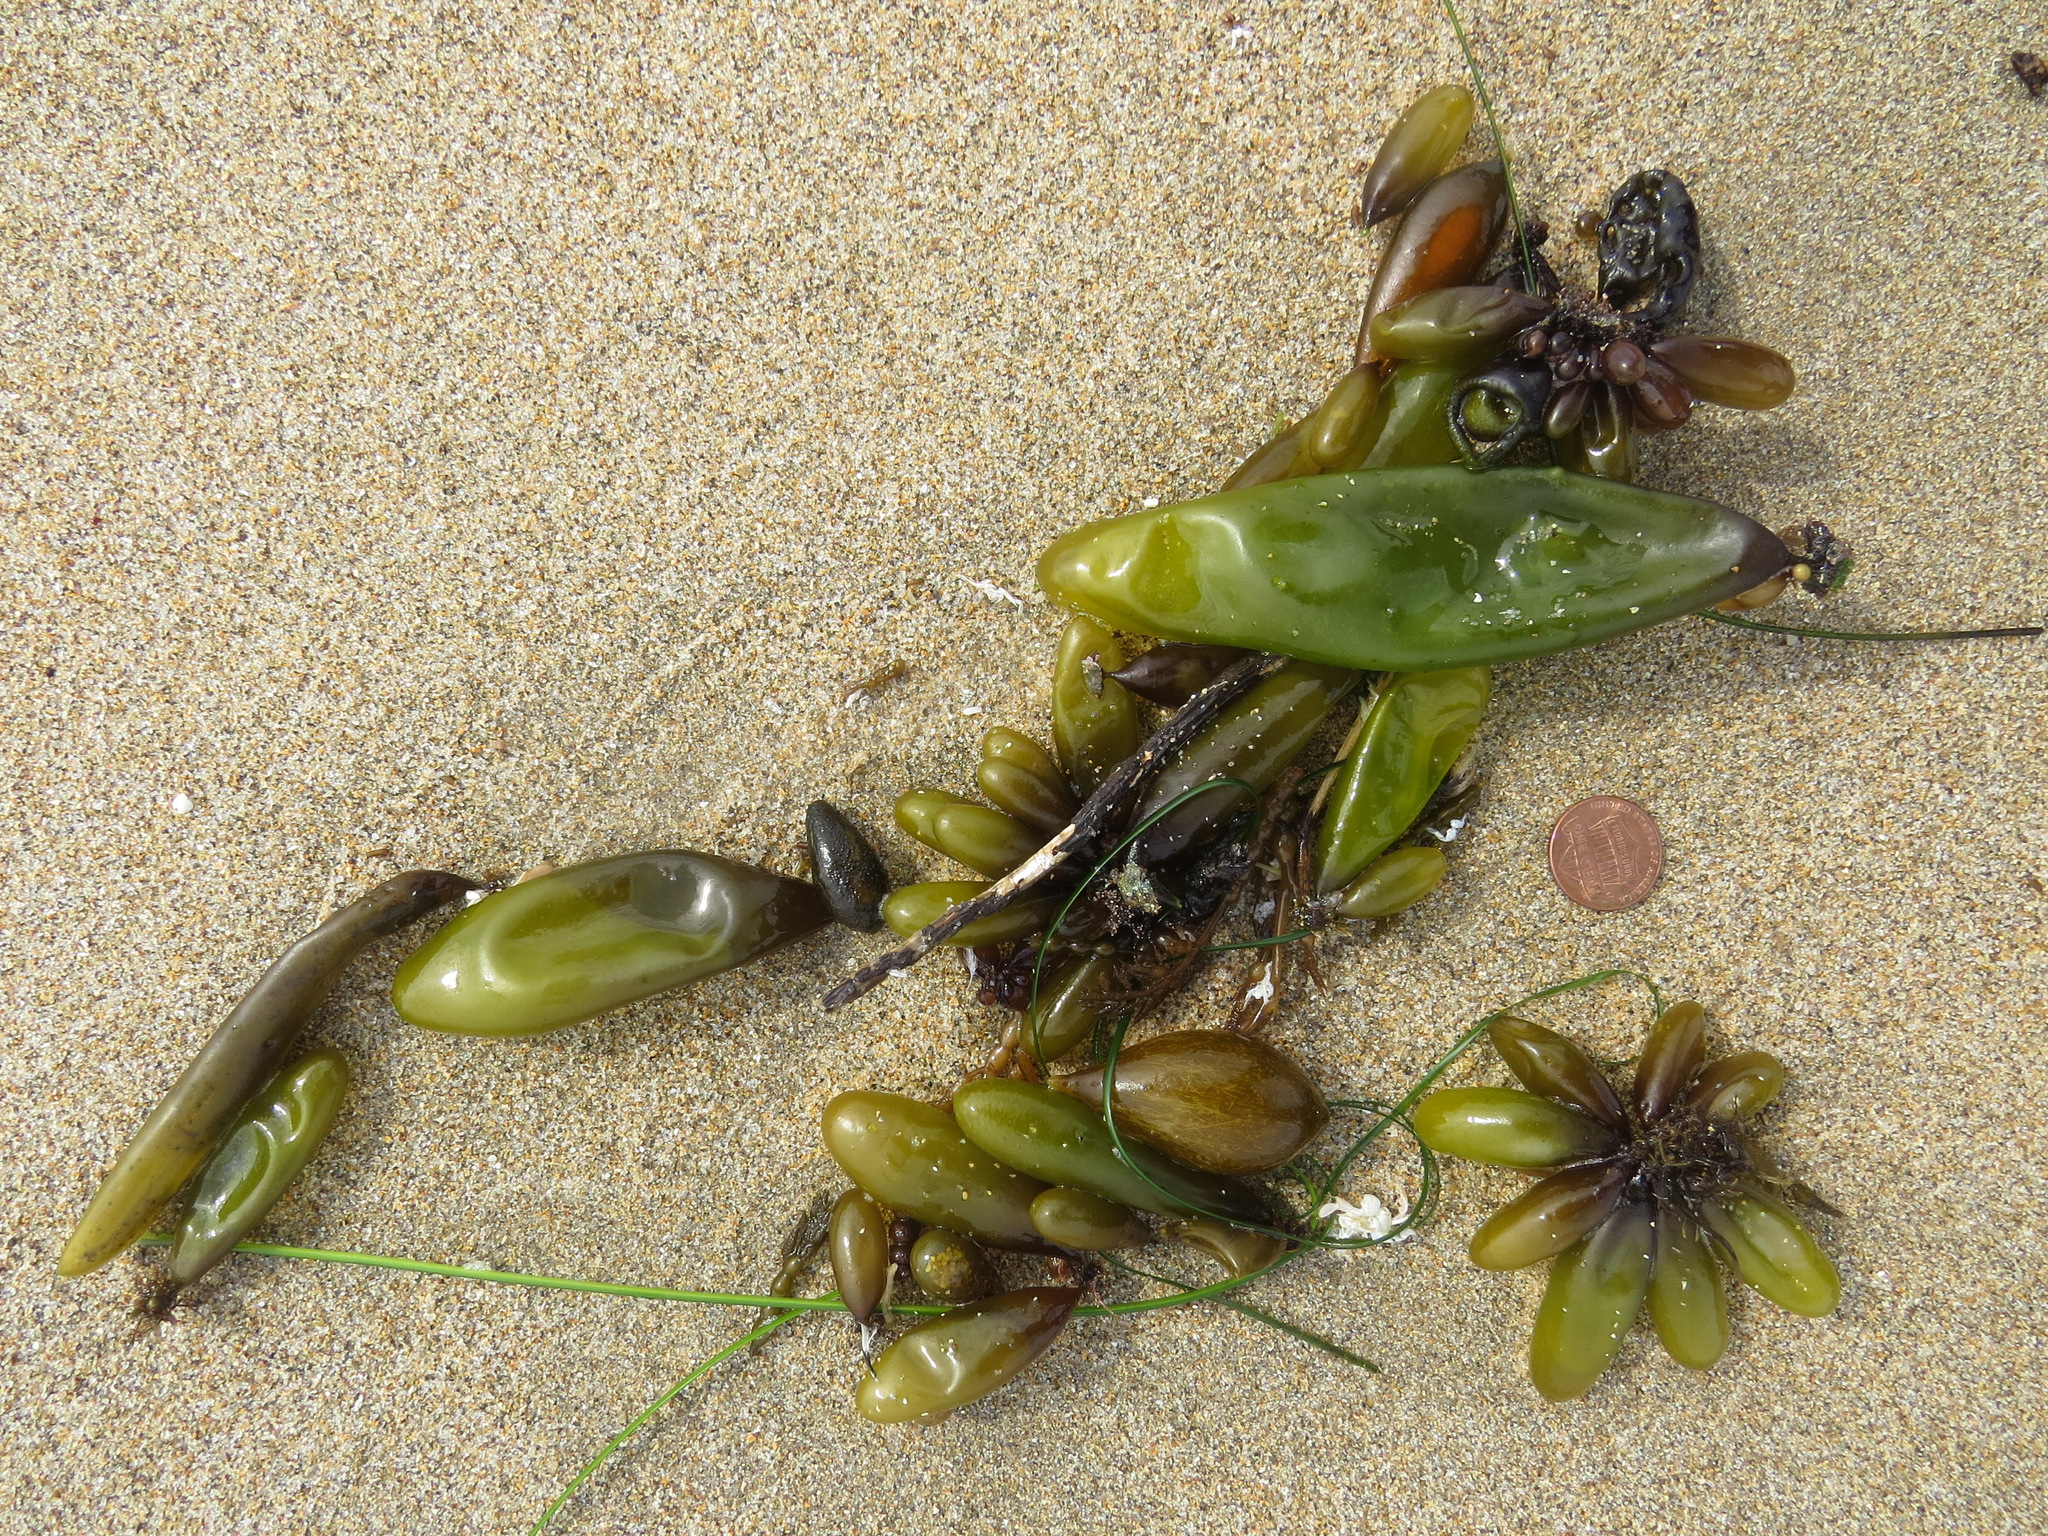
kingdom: Plantae
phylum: Rhodophyta
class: Florideophyceae
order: Palmariales
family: Palmariaceae
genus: Halosaccion
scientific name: Halosaccion glandiforme
